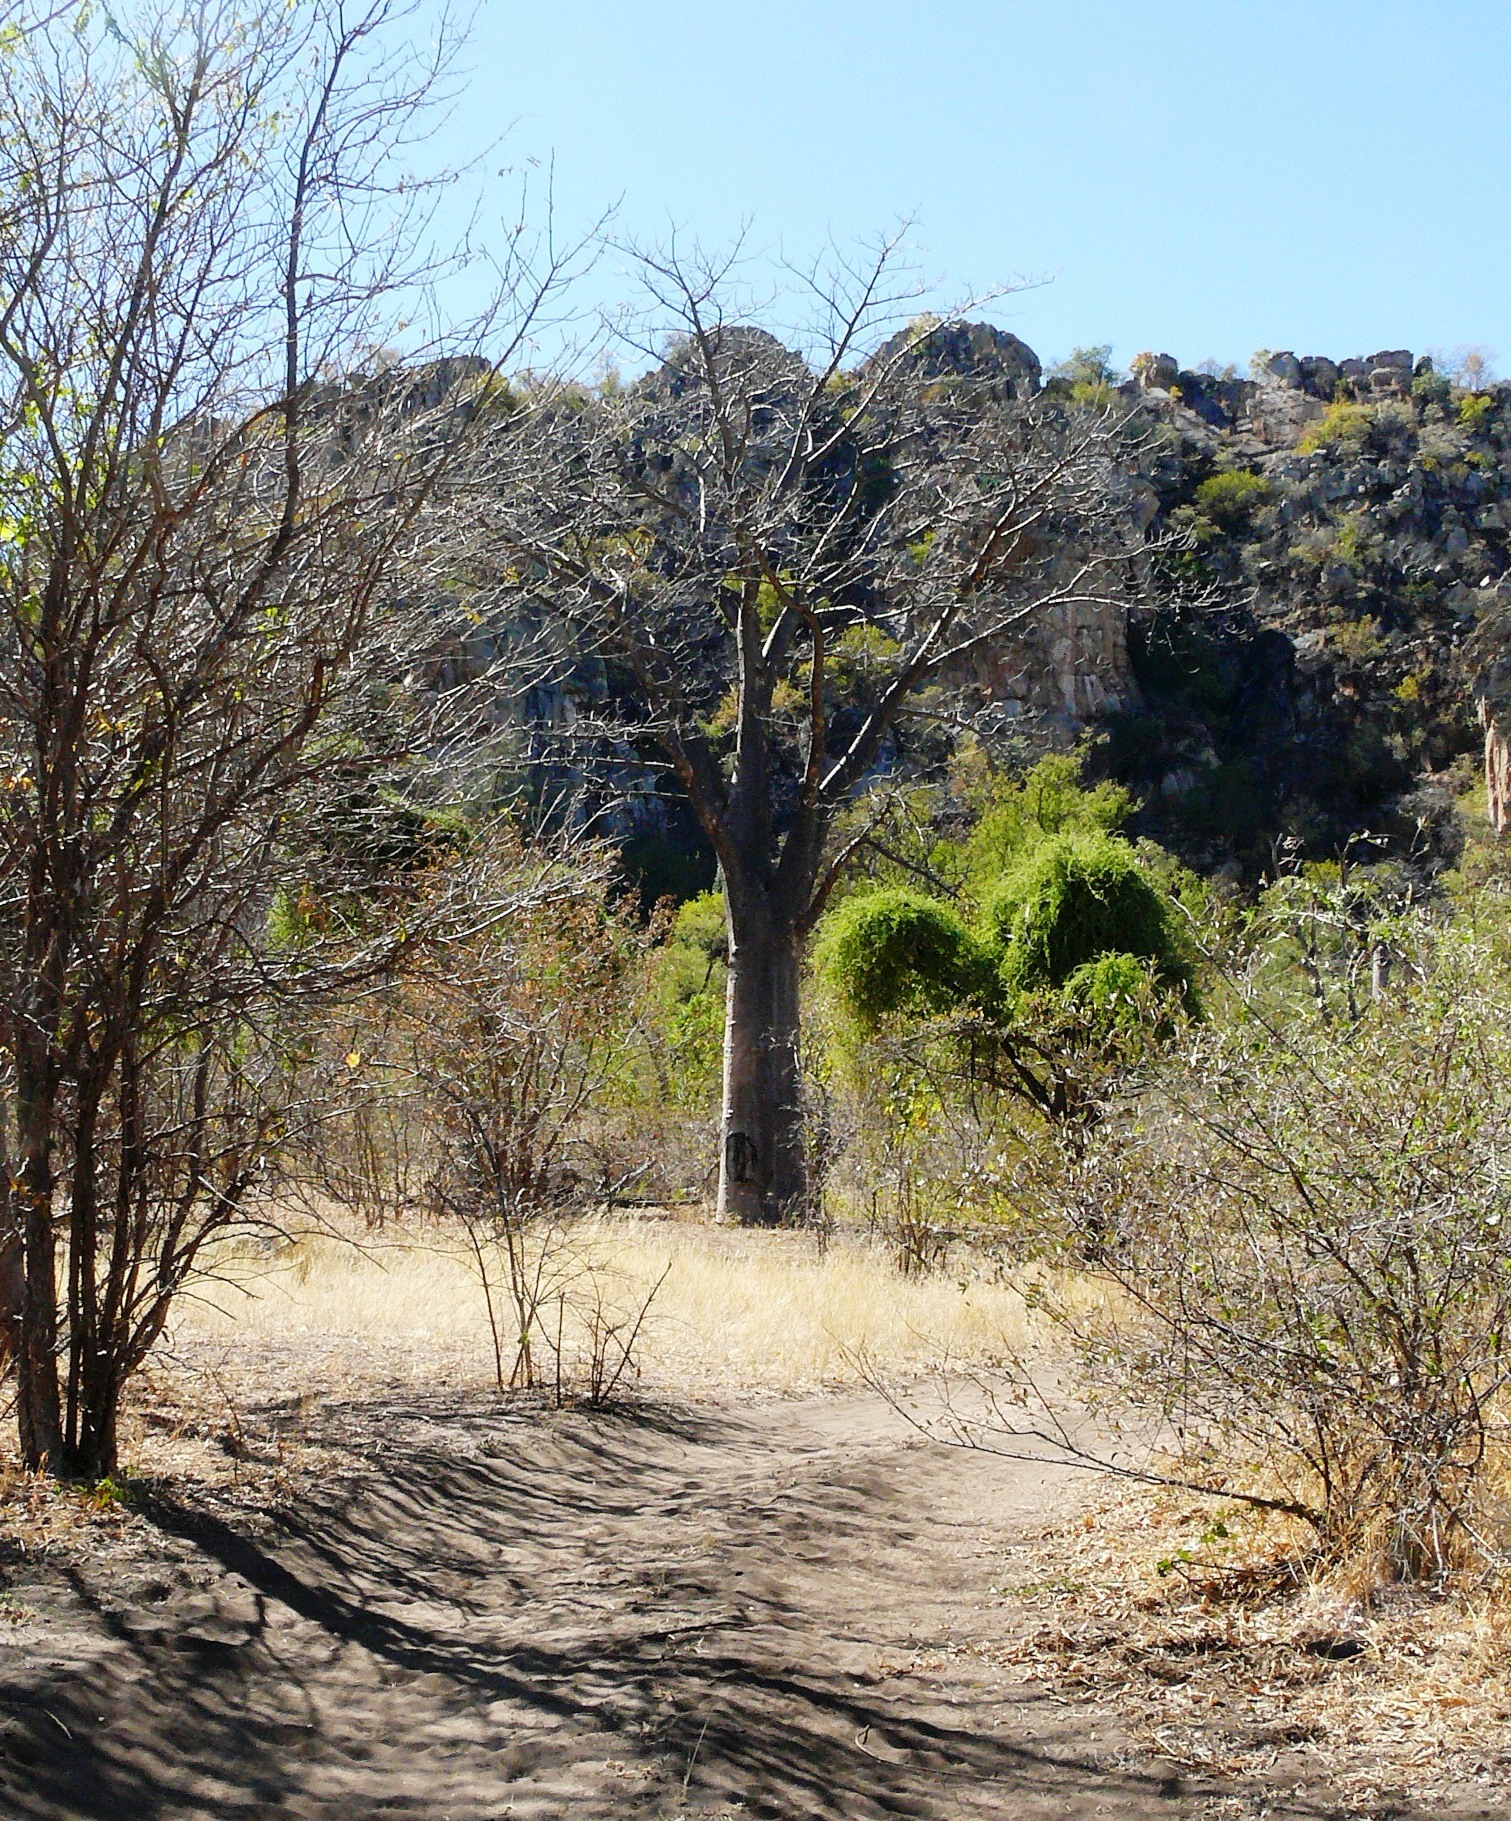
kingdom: Plantae
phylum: Tracheophyta
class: Magnoliopsida
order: Malvales
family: Malvaceae
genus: Adansonia
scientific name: Adansonia digitata
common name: Dead-rat-tree
